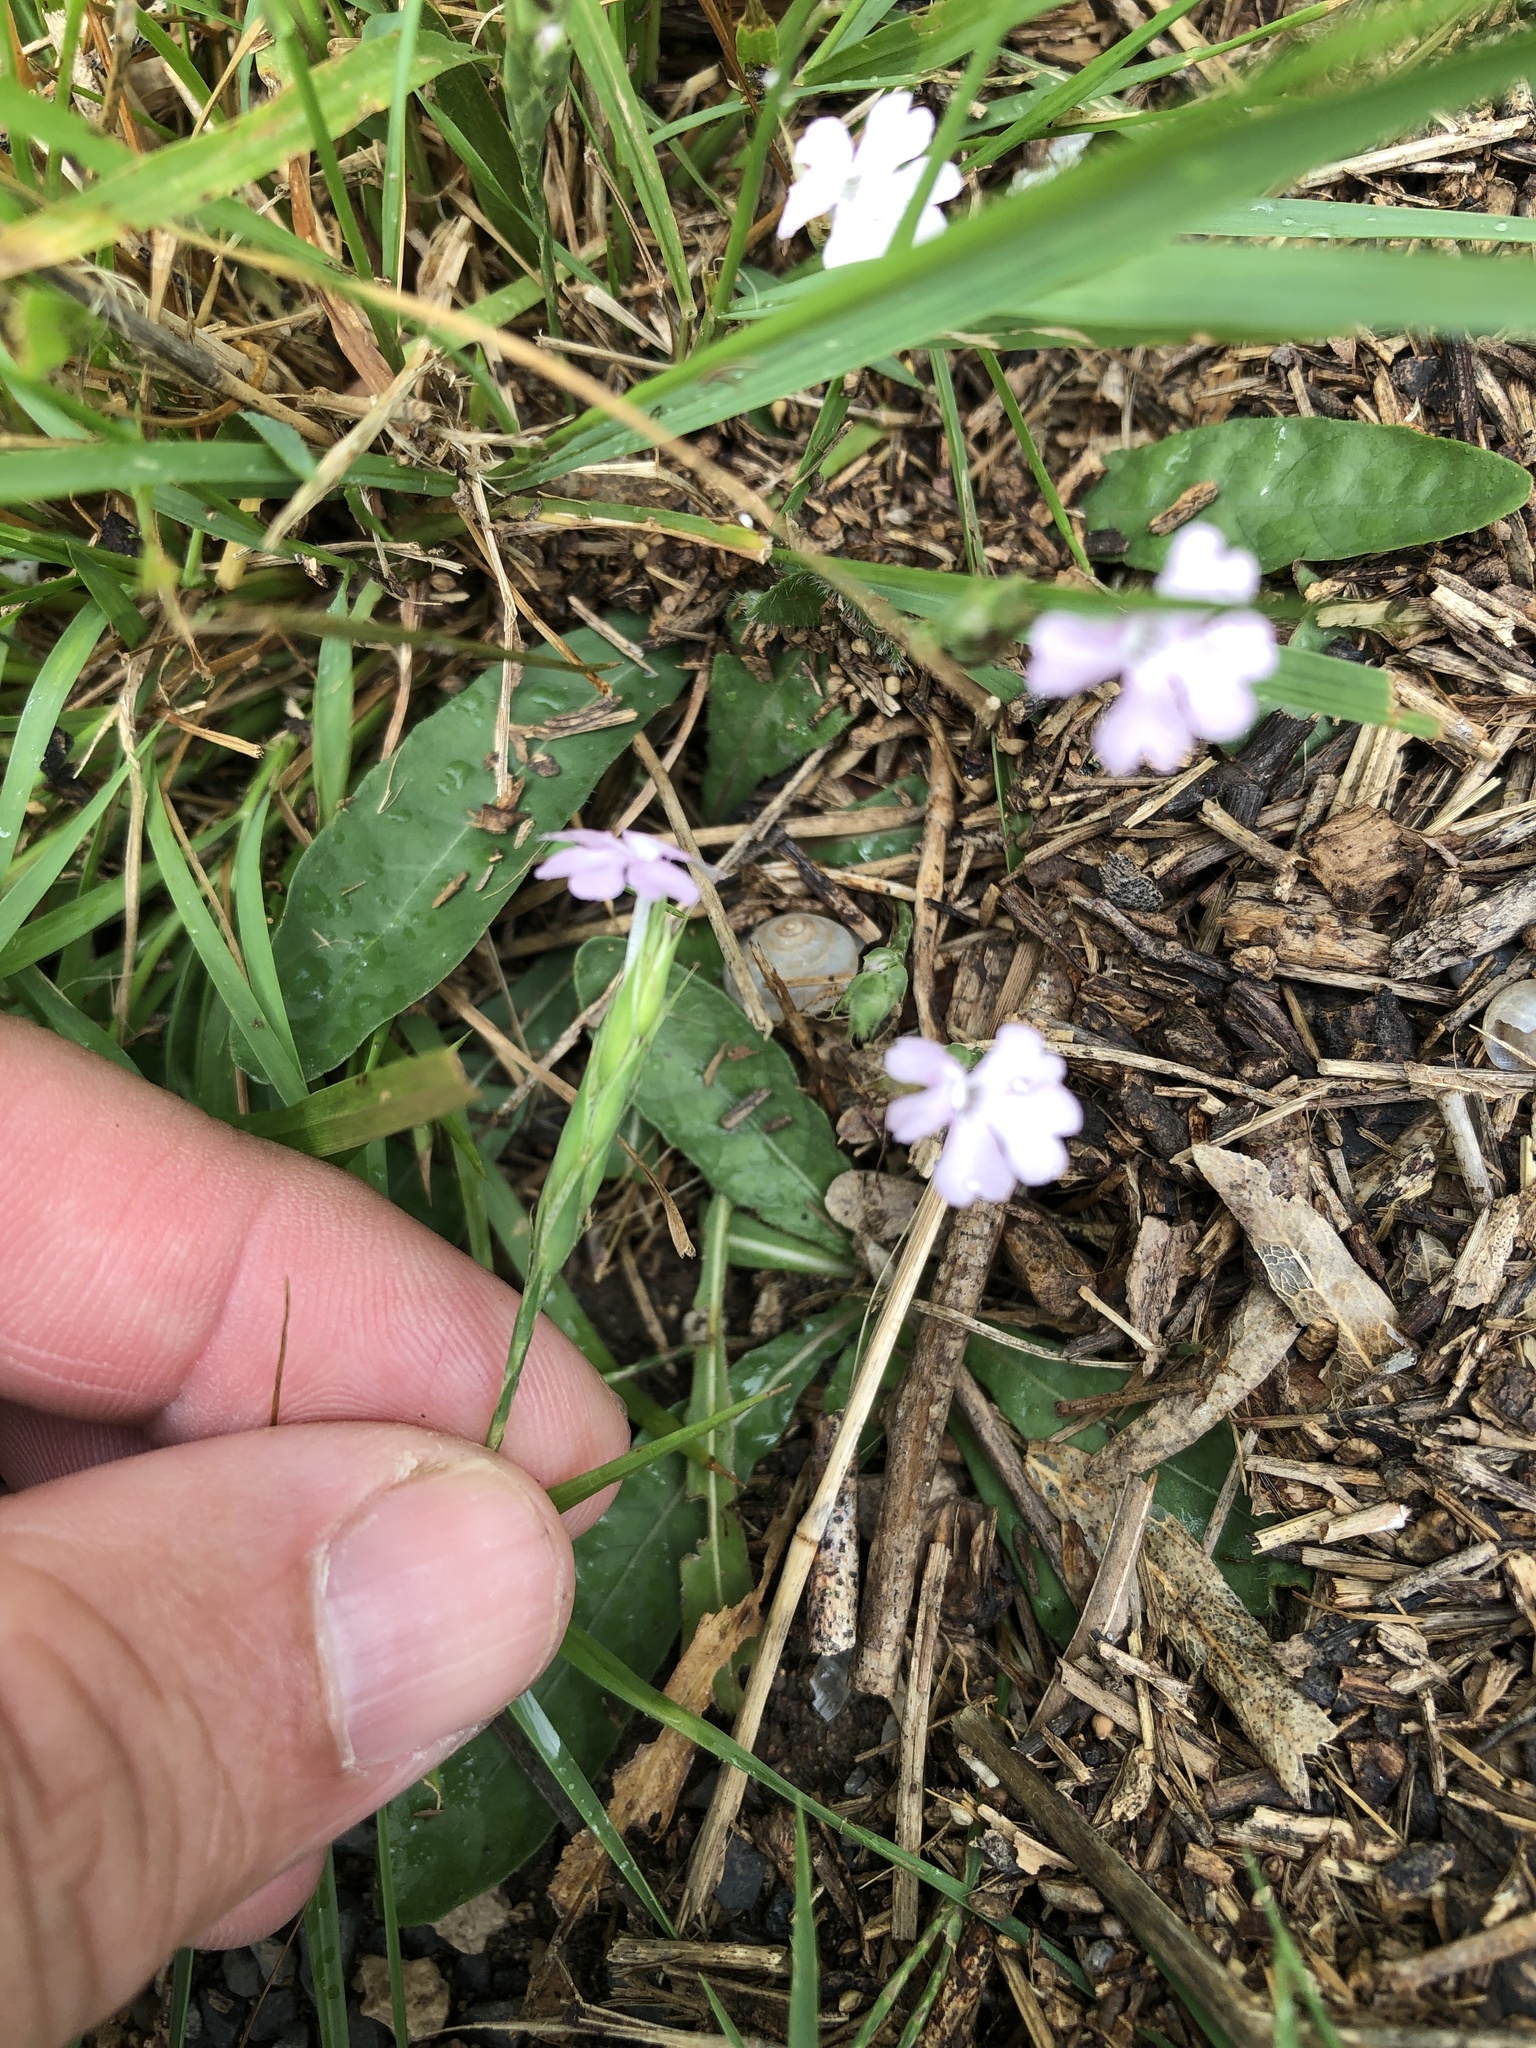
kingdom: Plantae
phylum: Tracheophyta
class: Magnoliopsida
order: Lamiales
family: Acanthaceae
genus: Elytraria
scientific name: Elytraria bromoides
